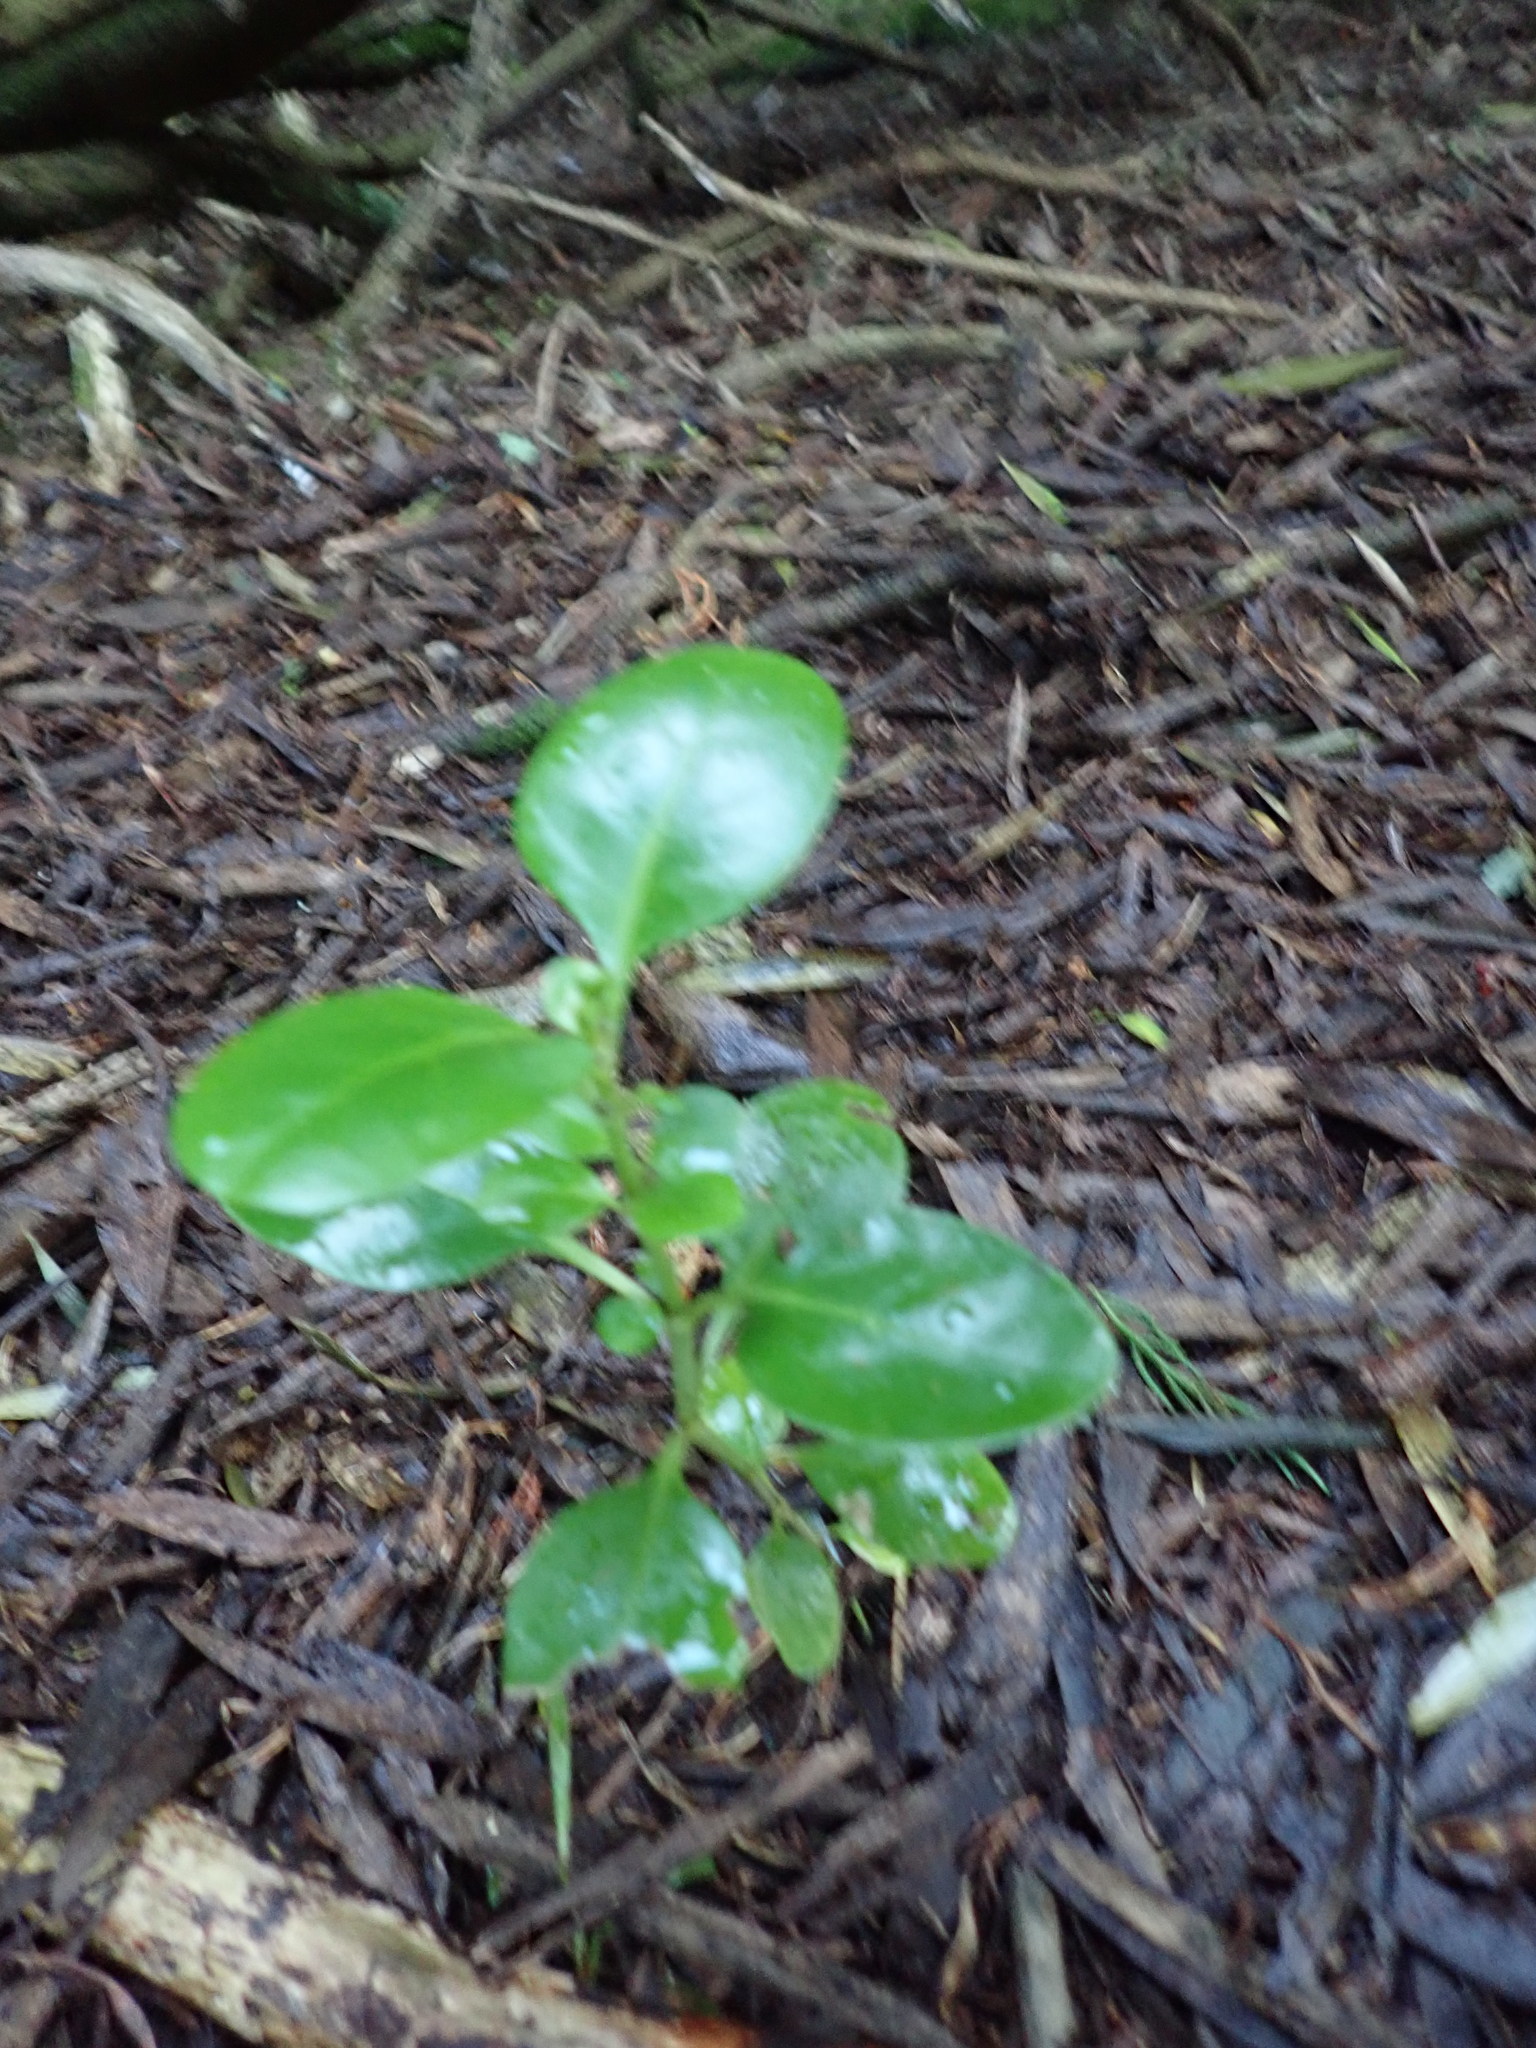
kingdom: Plantae
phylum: Tracheophyta
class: Magnoliopsida
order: Gentianales
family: Rubiaceae
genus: Coprosma
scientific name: Coprosma repens
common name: Tree bedstraw
